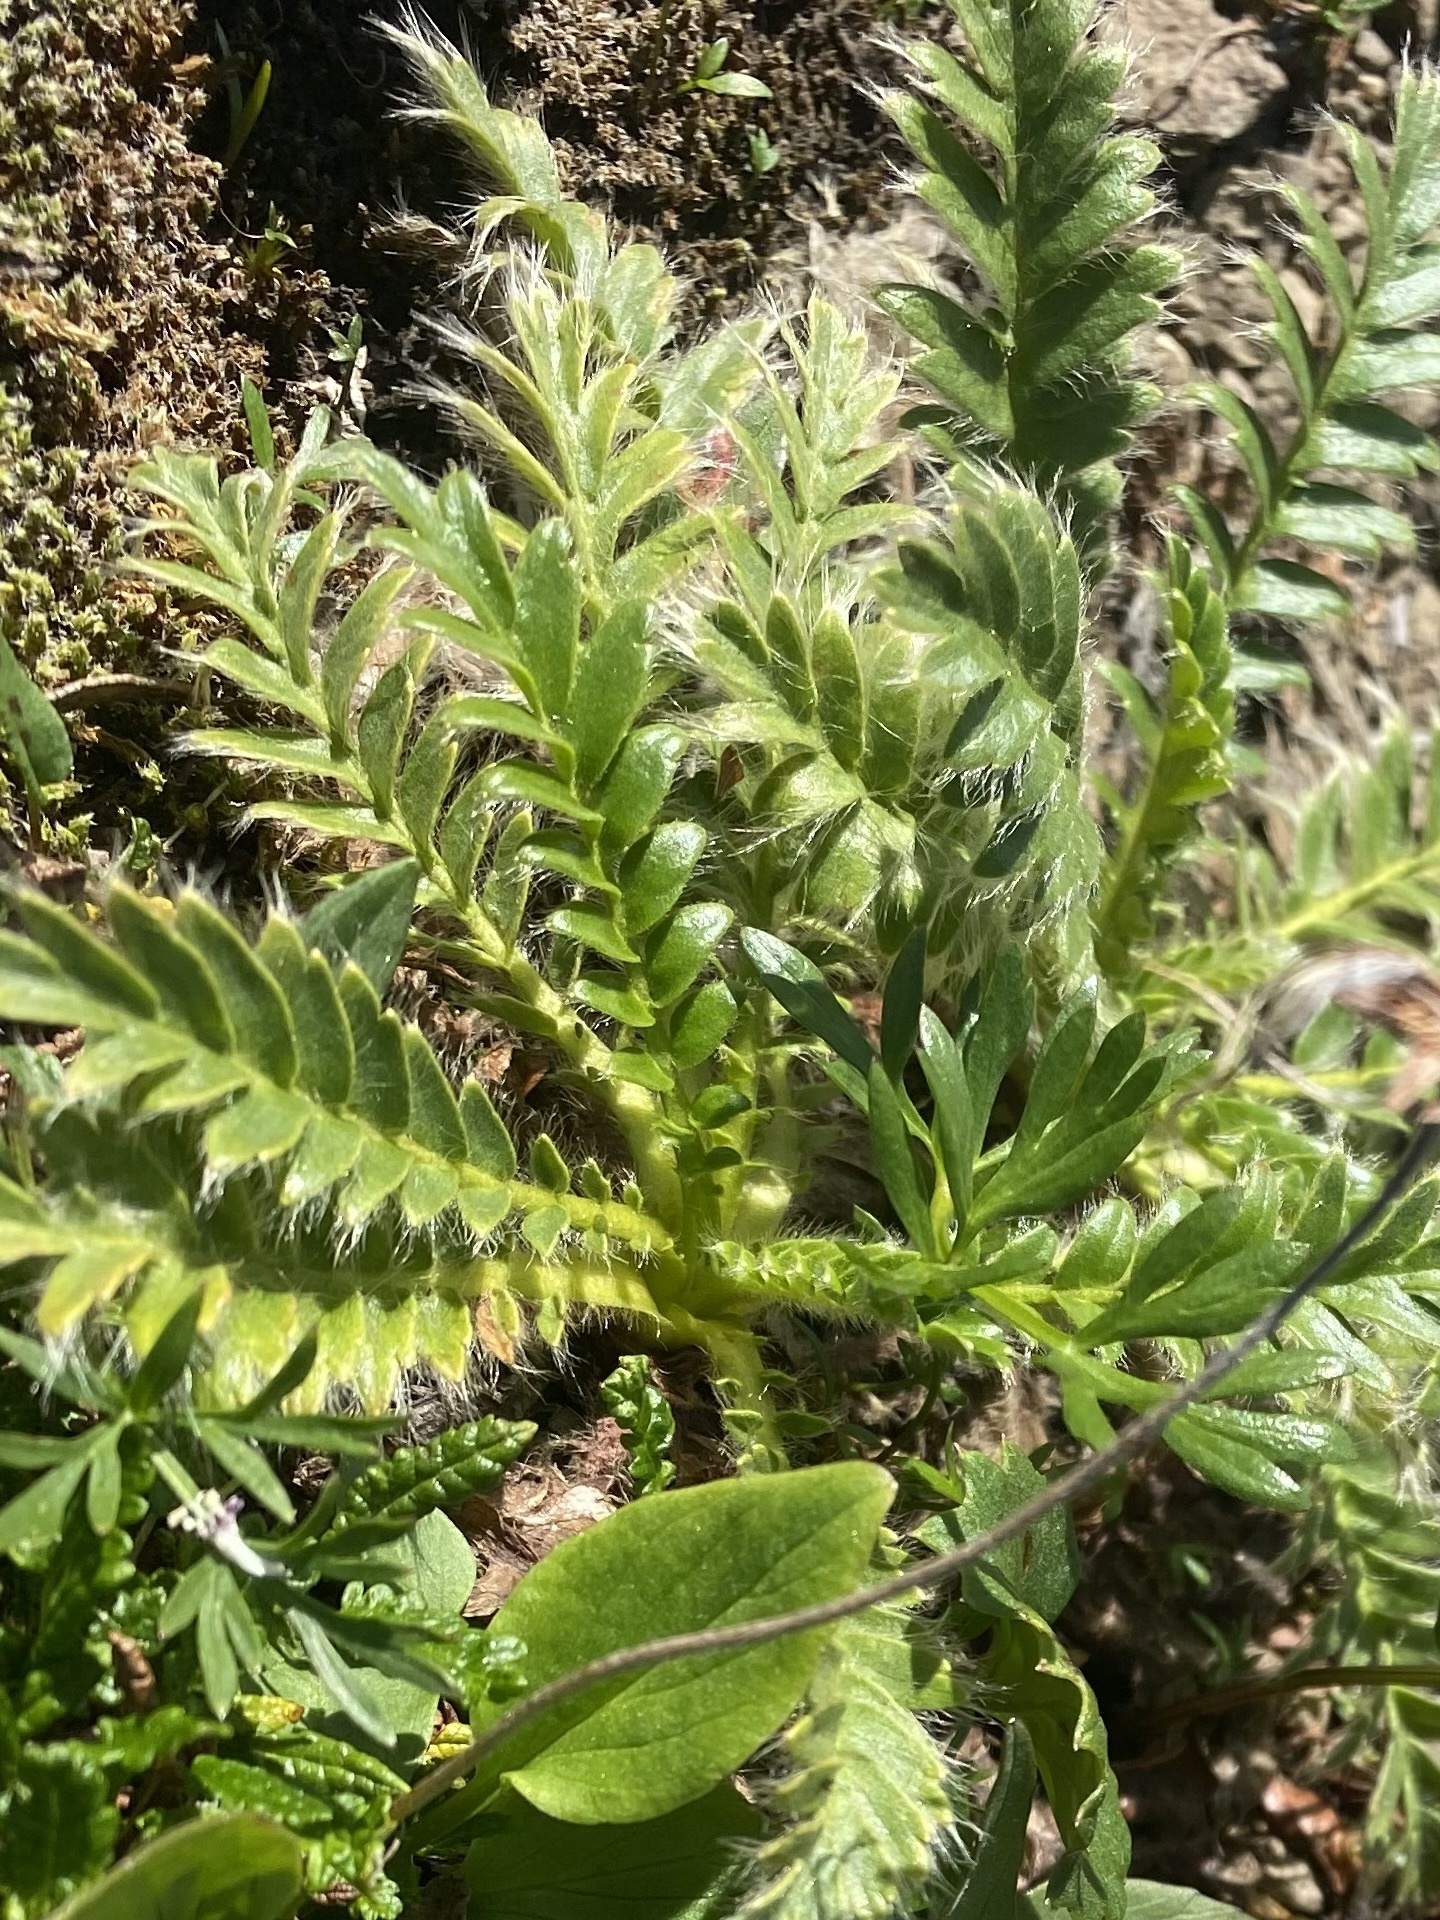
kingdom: Plantae
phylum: Tracheophyta
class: Magnoliopsida
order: Rosales
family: Rosaceae
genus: Geum
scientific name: Geum glaciale
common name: Glacier avens
